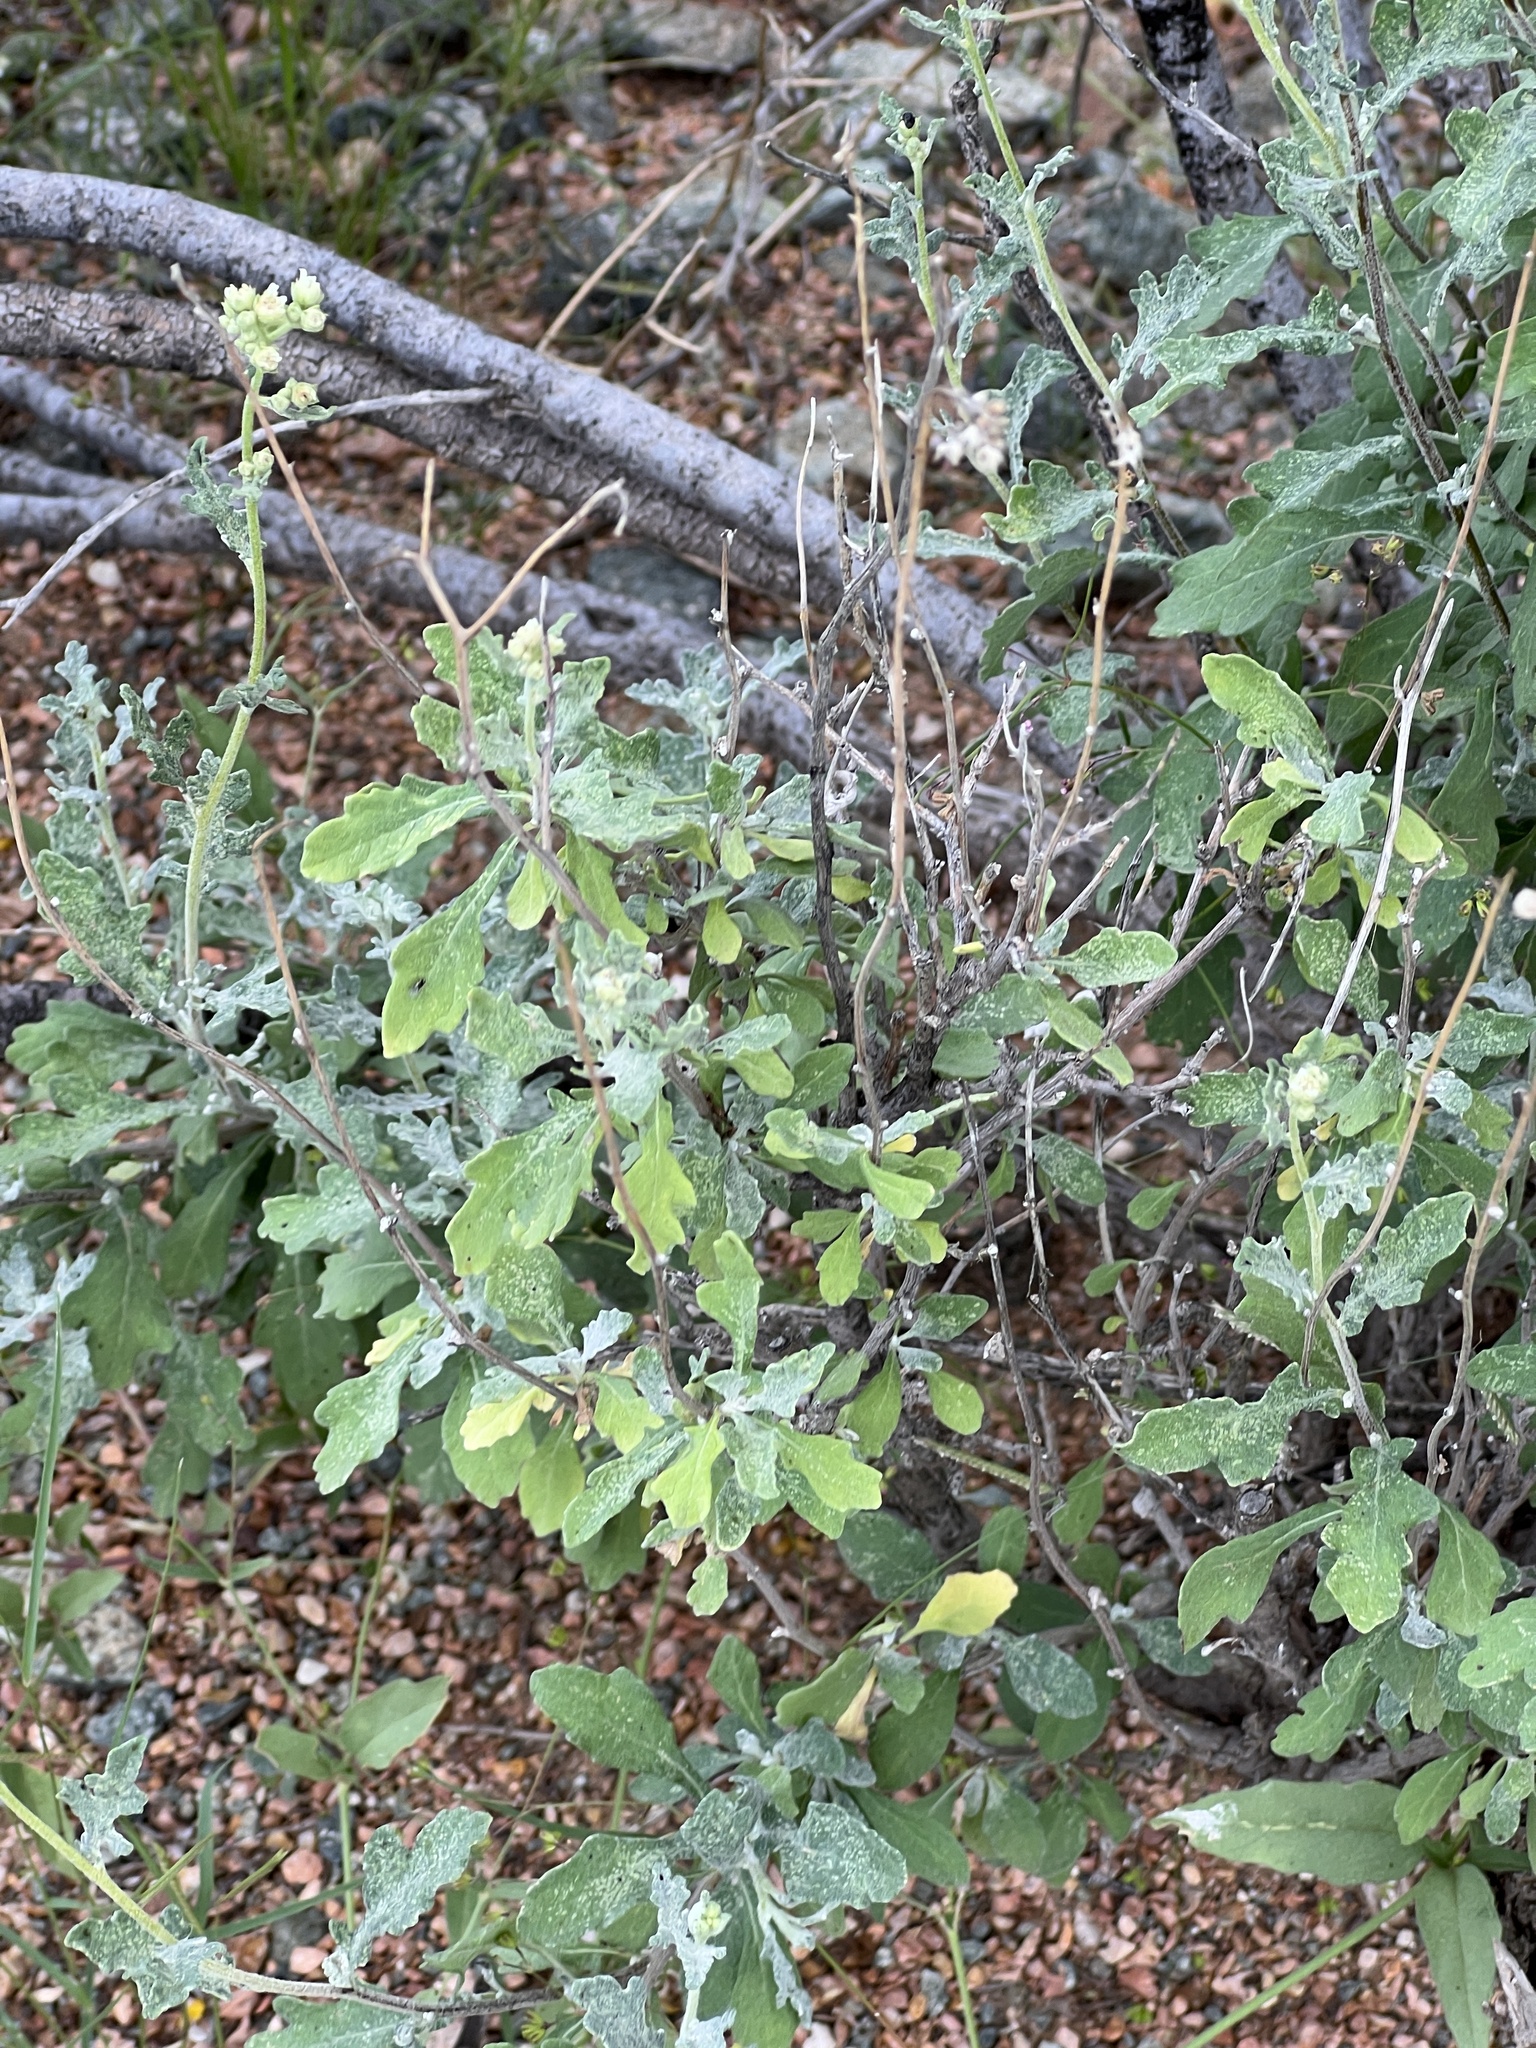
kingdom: Plantae
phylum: Tracheophyta
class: Magnoliopsida
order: Asterales
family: Asteraceae
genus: Parthenium
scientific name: Parthenium incanum
